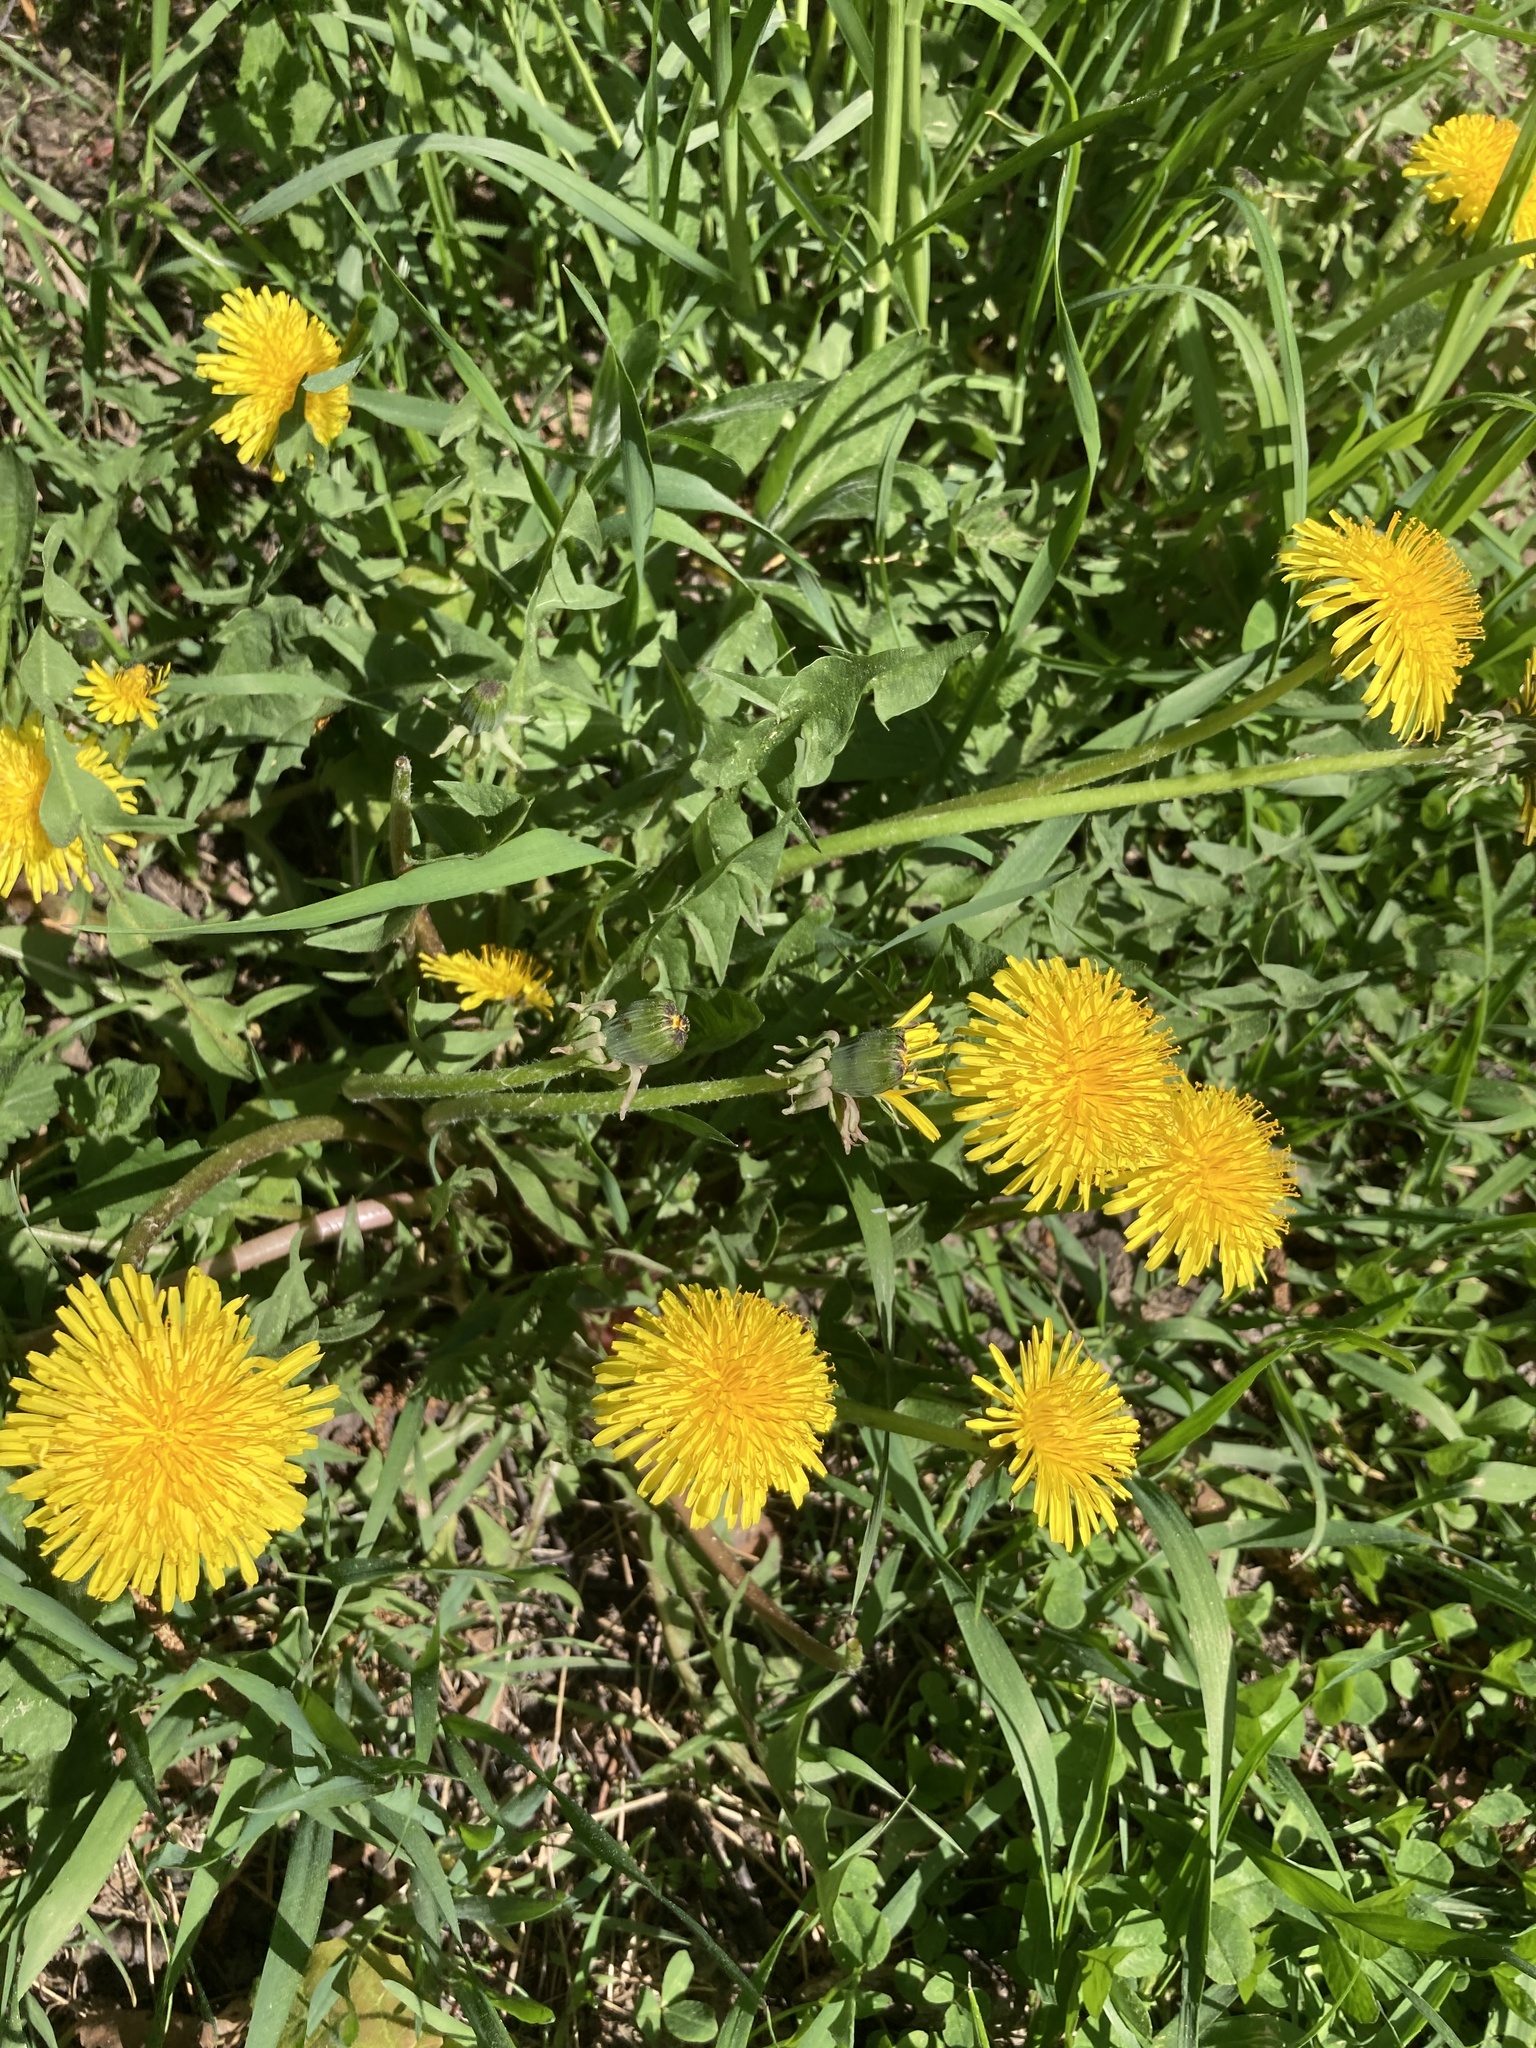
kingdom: Plantae
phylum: Tracheophyta
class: Magnoliopsida
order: Asterales
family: Asteraceae
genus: Taraxacum
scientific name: Taraxacum officinale
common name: Common dandelion
